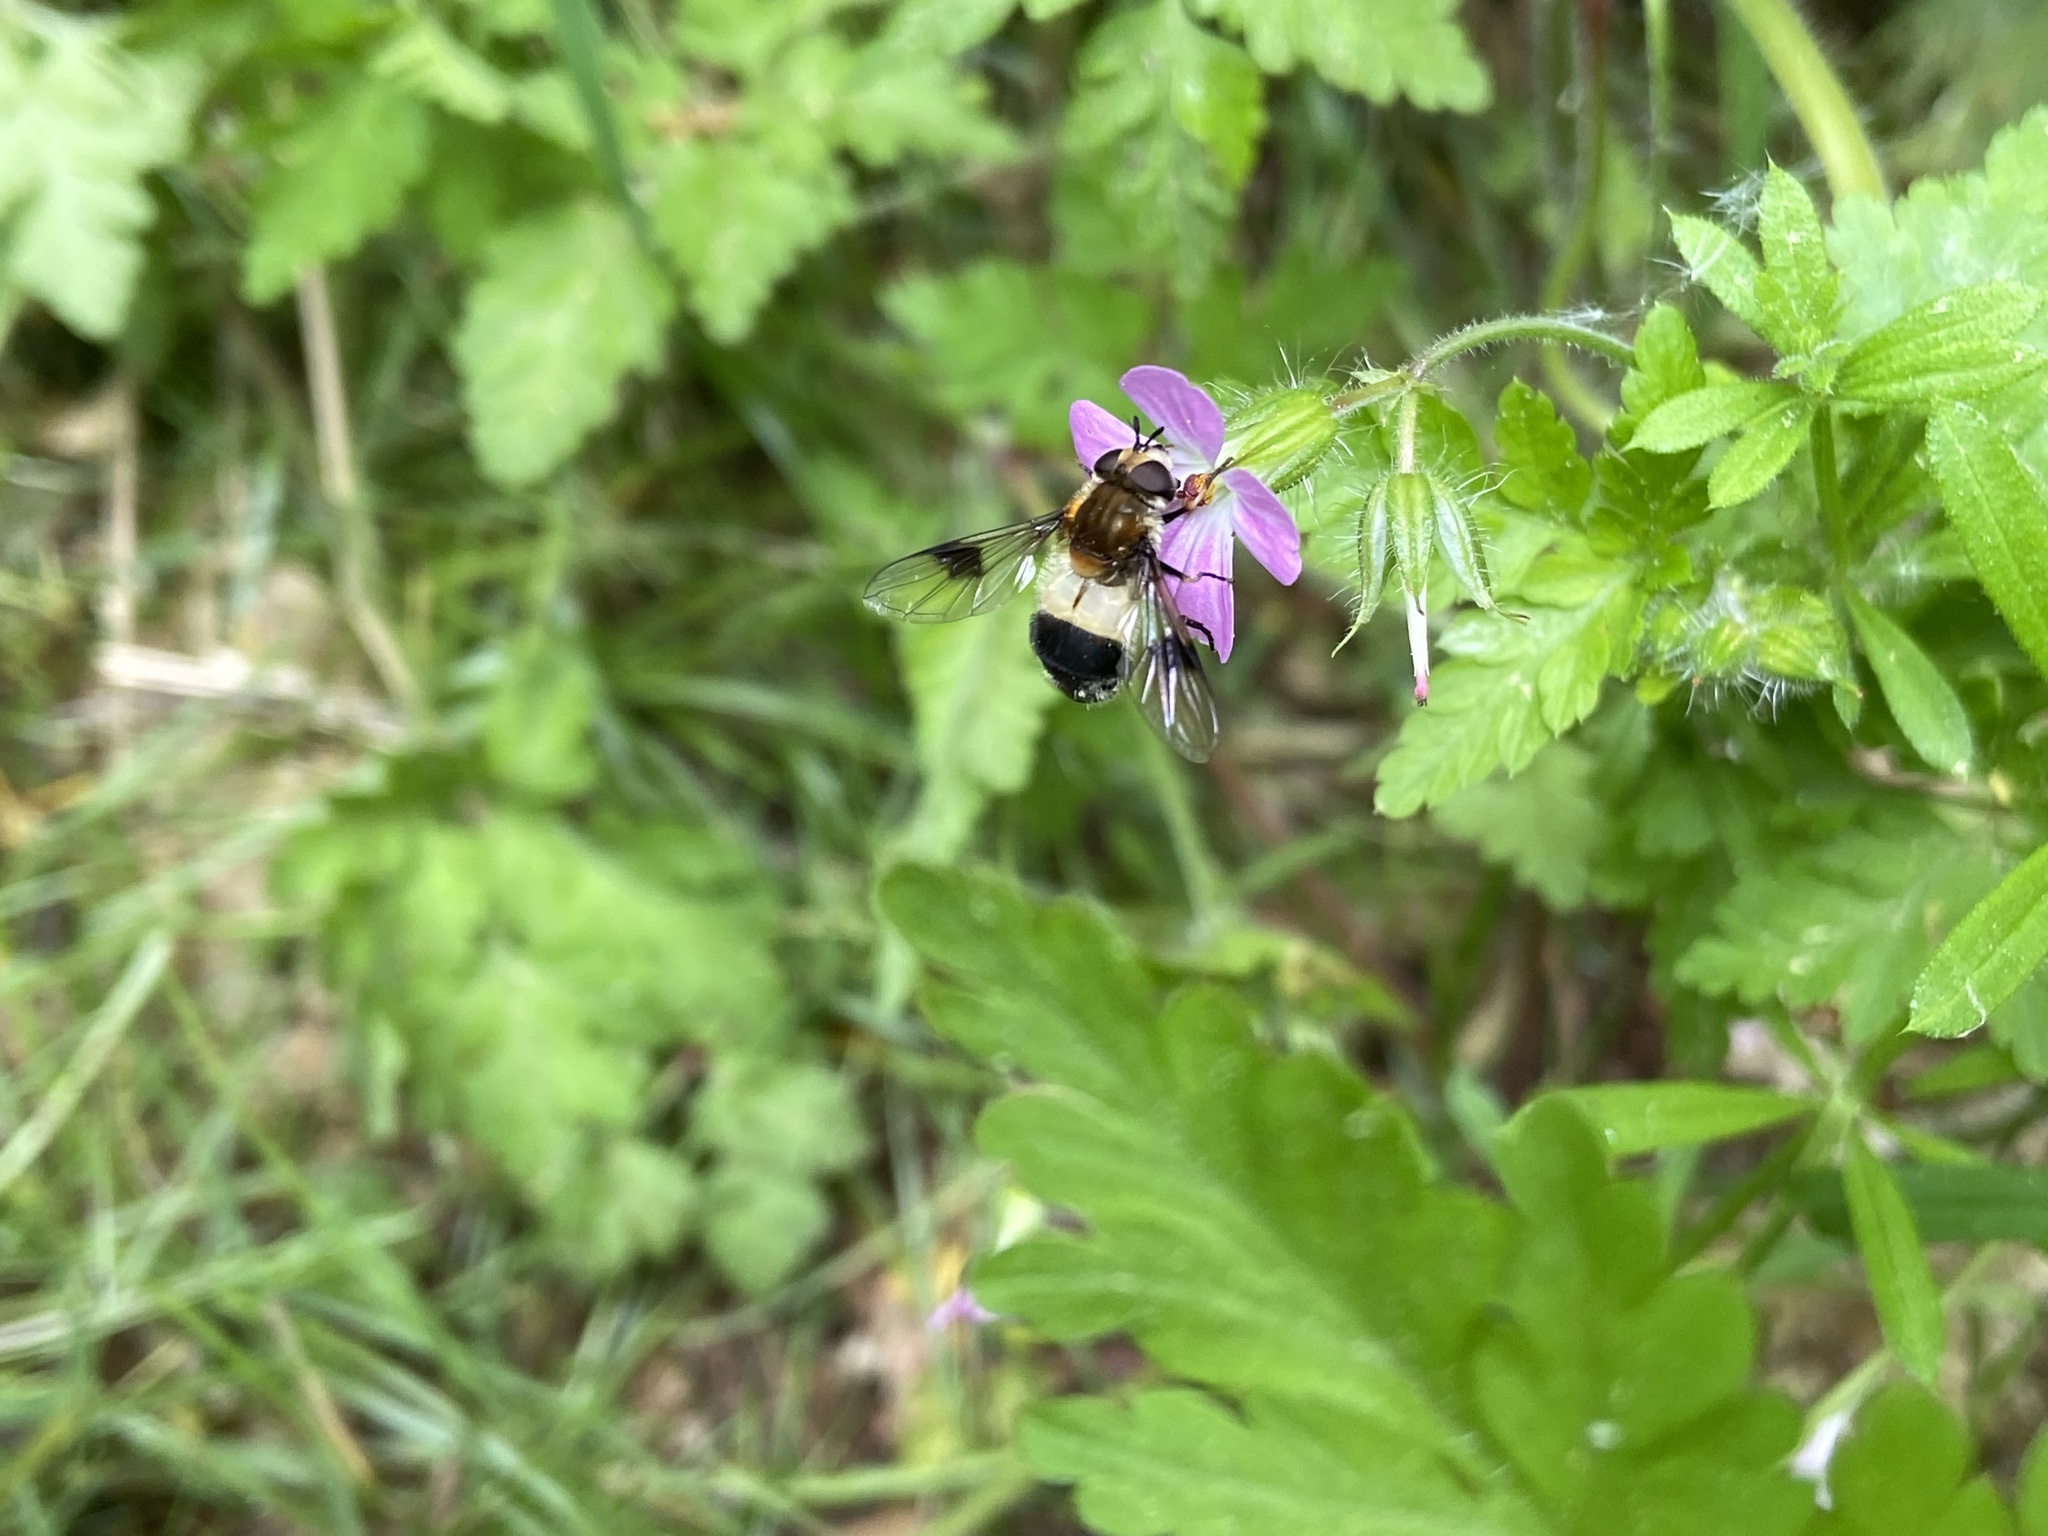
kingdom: Animalia
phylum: Arthropoda
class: Insecta
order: Diptera
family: Syrphidae
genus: Leucozona
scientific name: Leucozona lucorum
